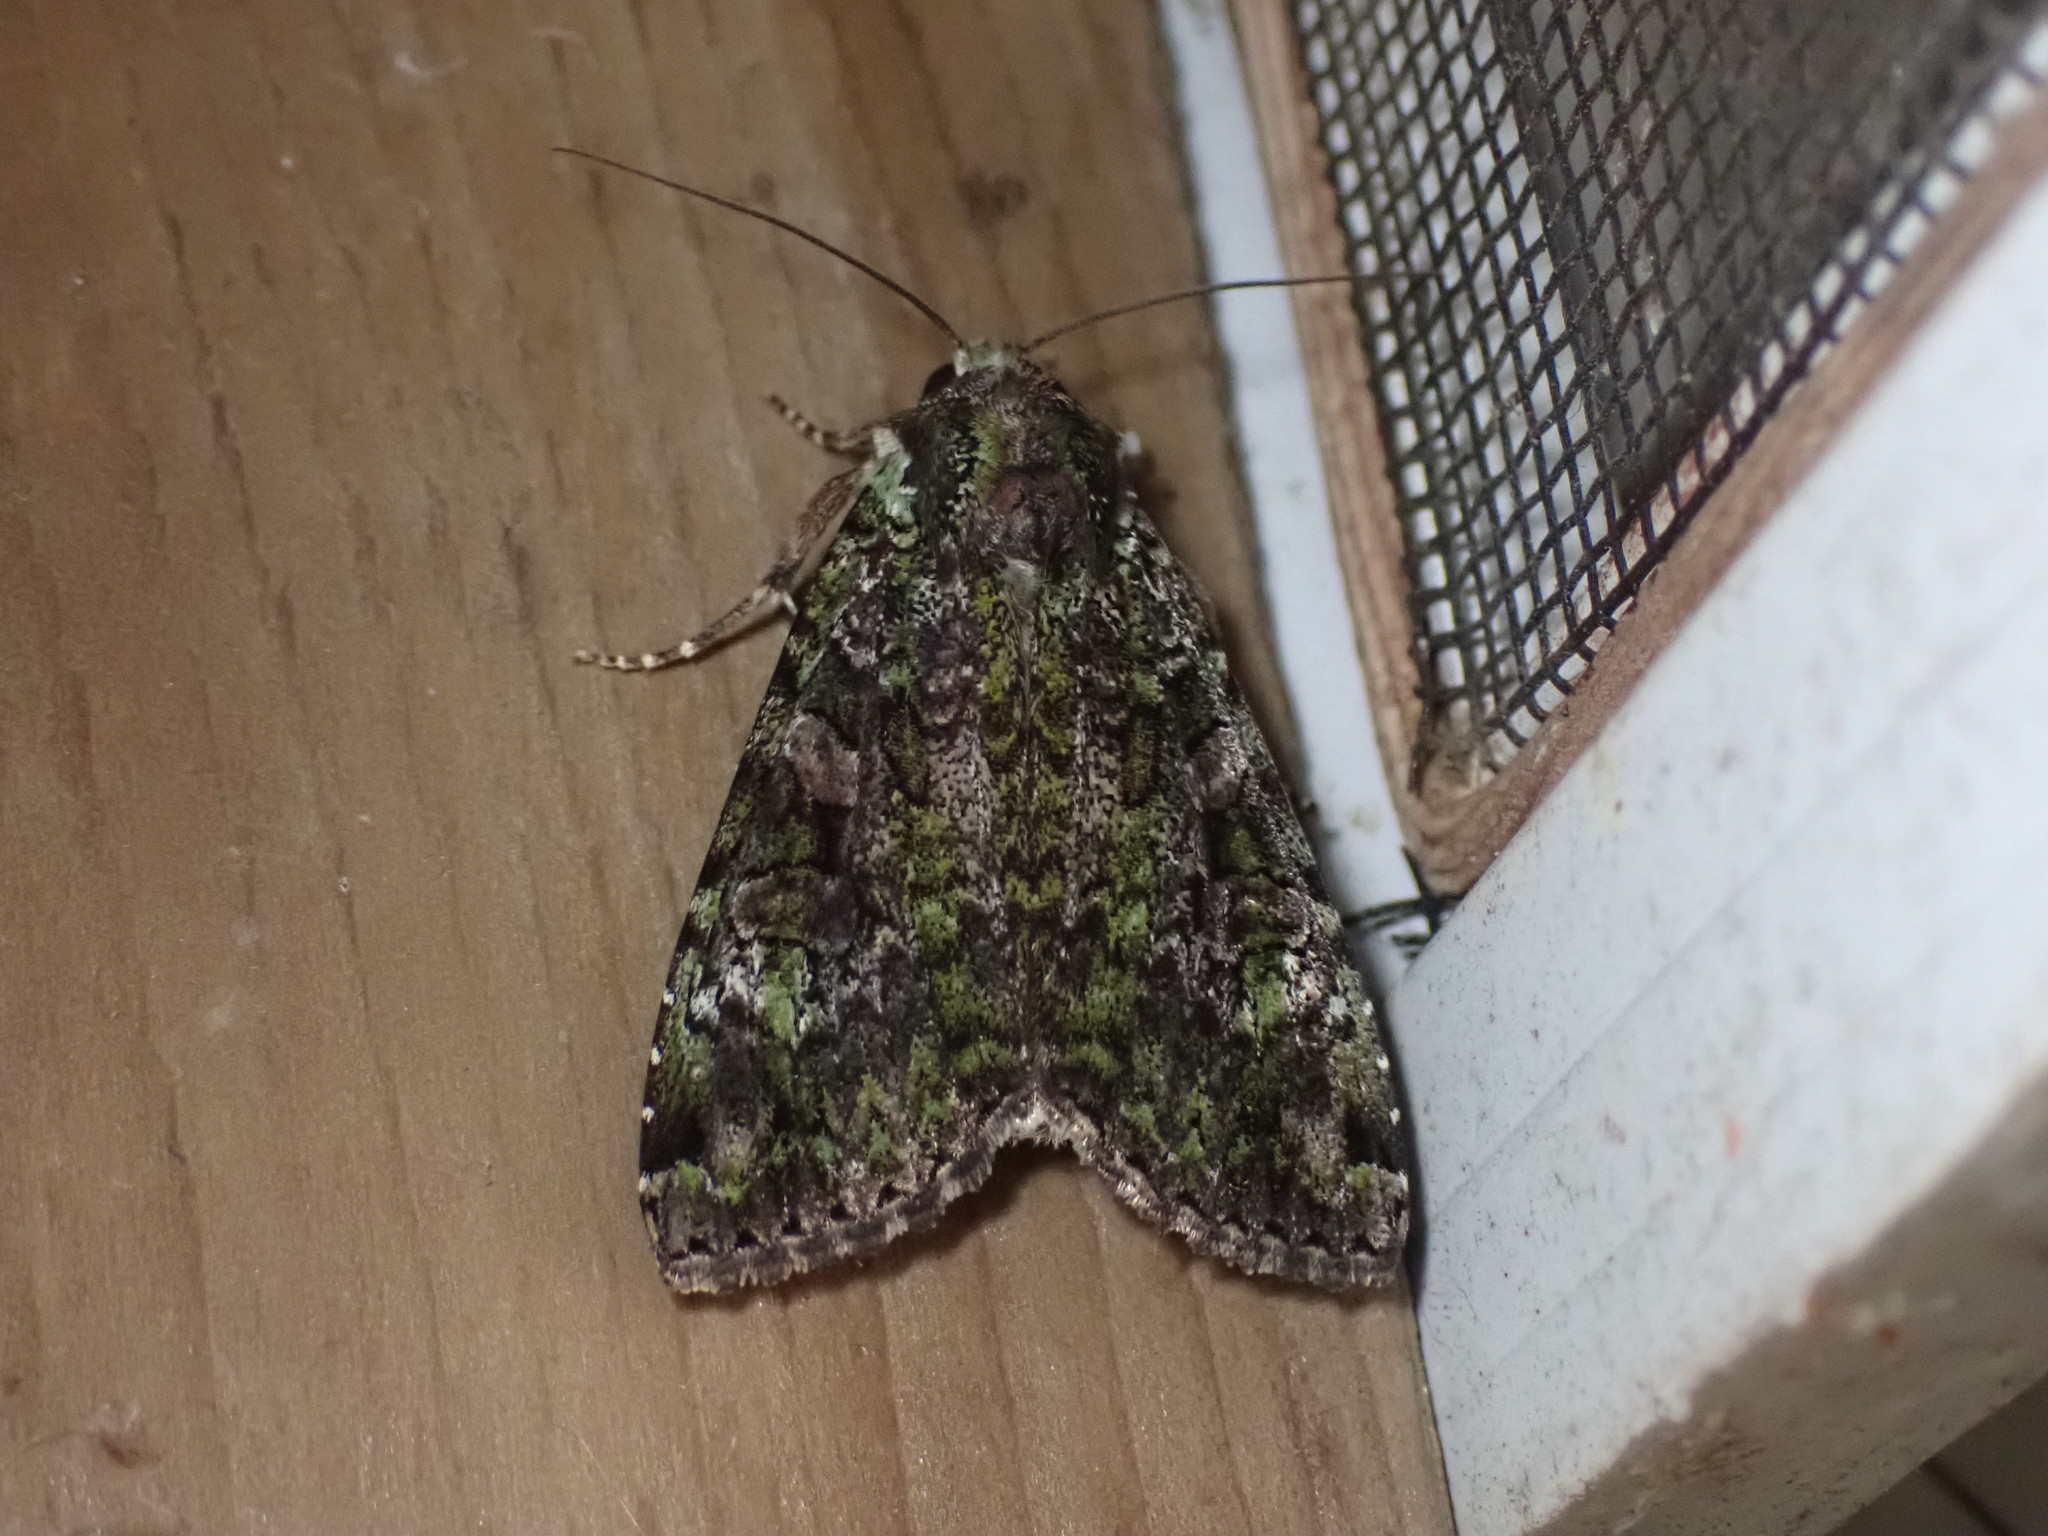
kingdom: Animalia
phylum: Arthropoda
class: Insecta
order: Lepidoptera
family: Noctuidae
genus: Anaplectoides
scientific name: Anaplectoides prasina
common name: Green arches
